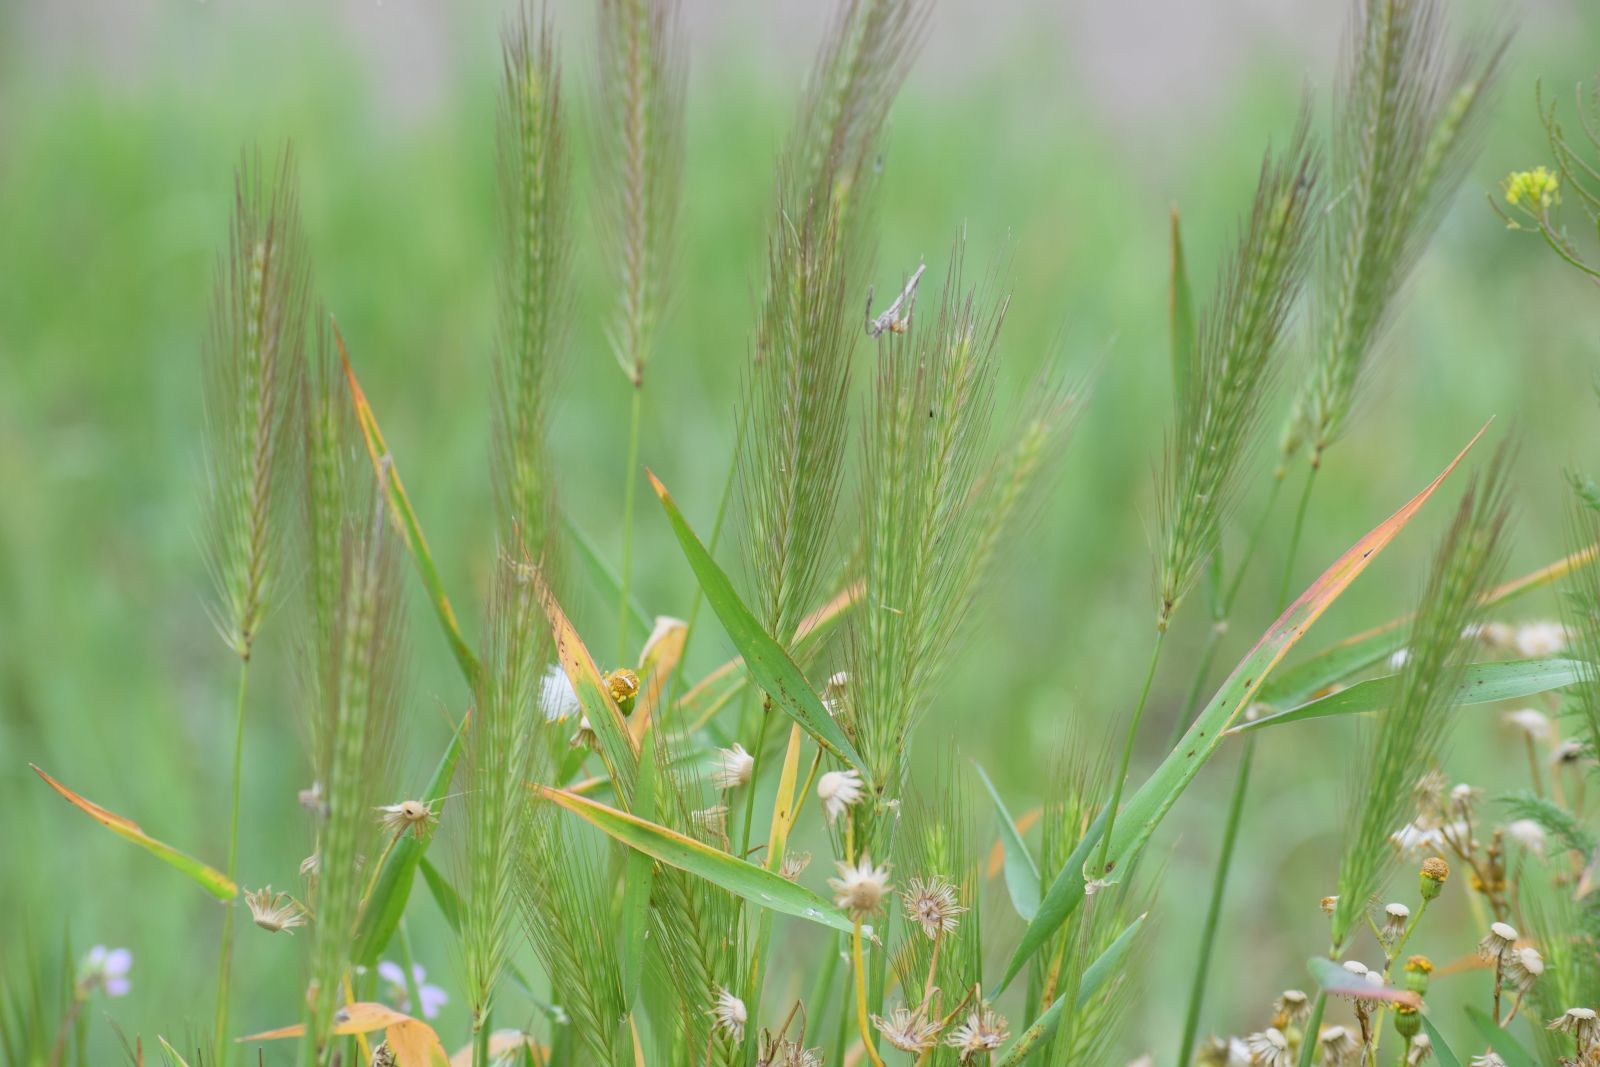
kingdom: Plantae
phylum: Tracheophyta
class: Liliopsida
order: Poales
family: Poaceae
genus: Hordeum
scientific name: Hordeum murinum
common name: Wall barley
